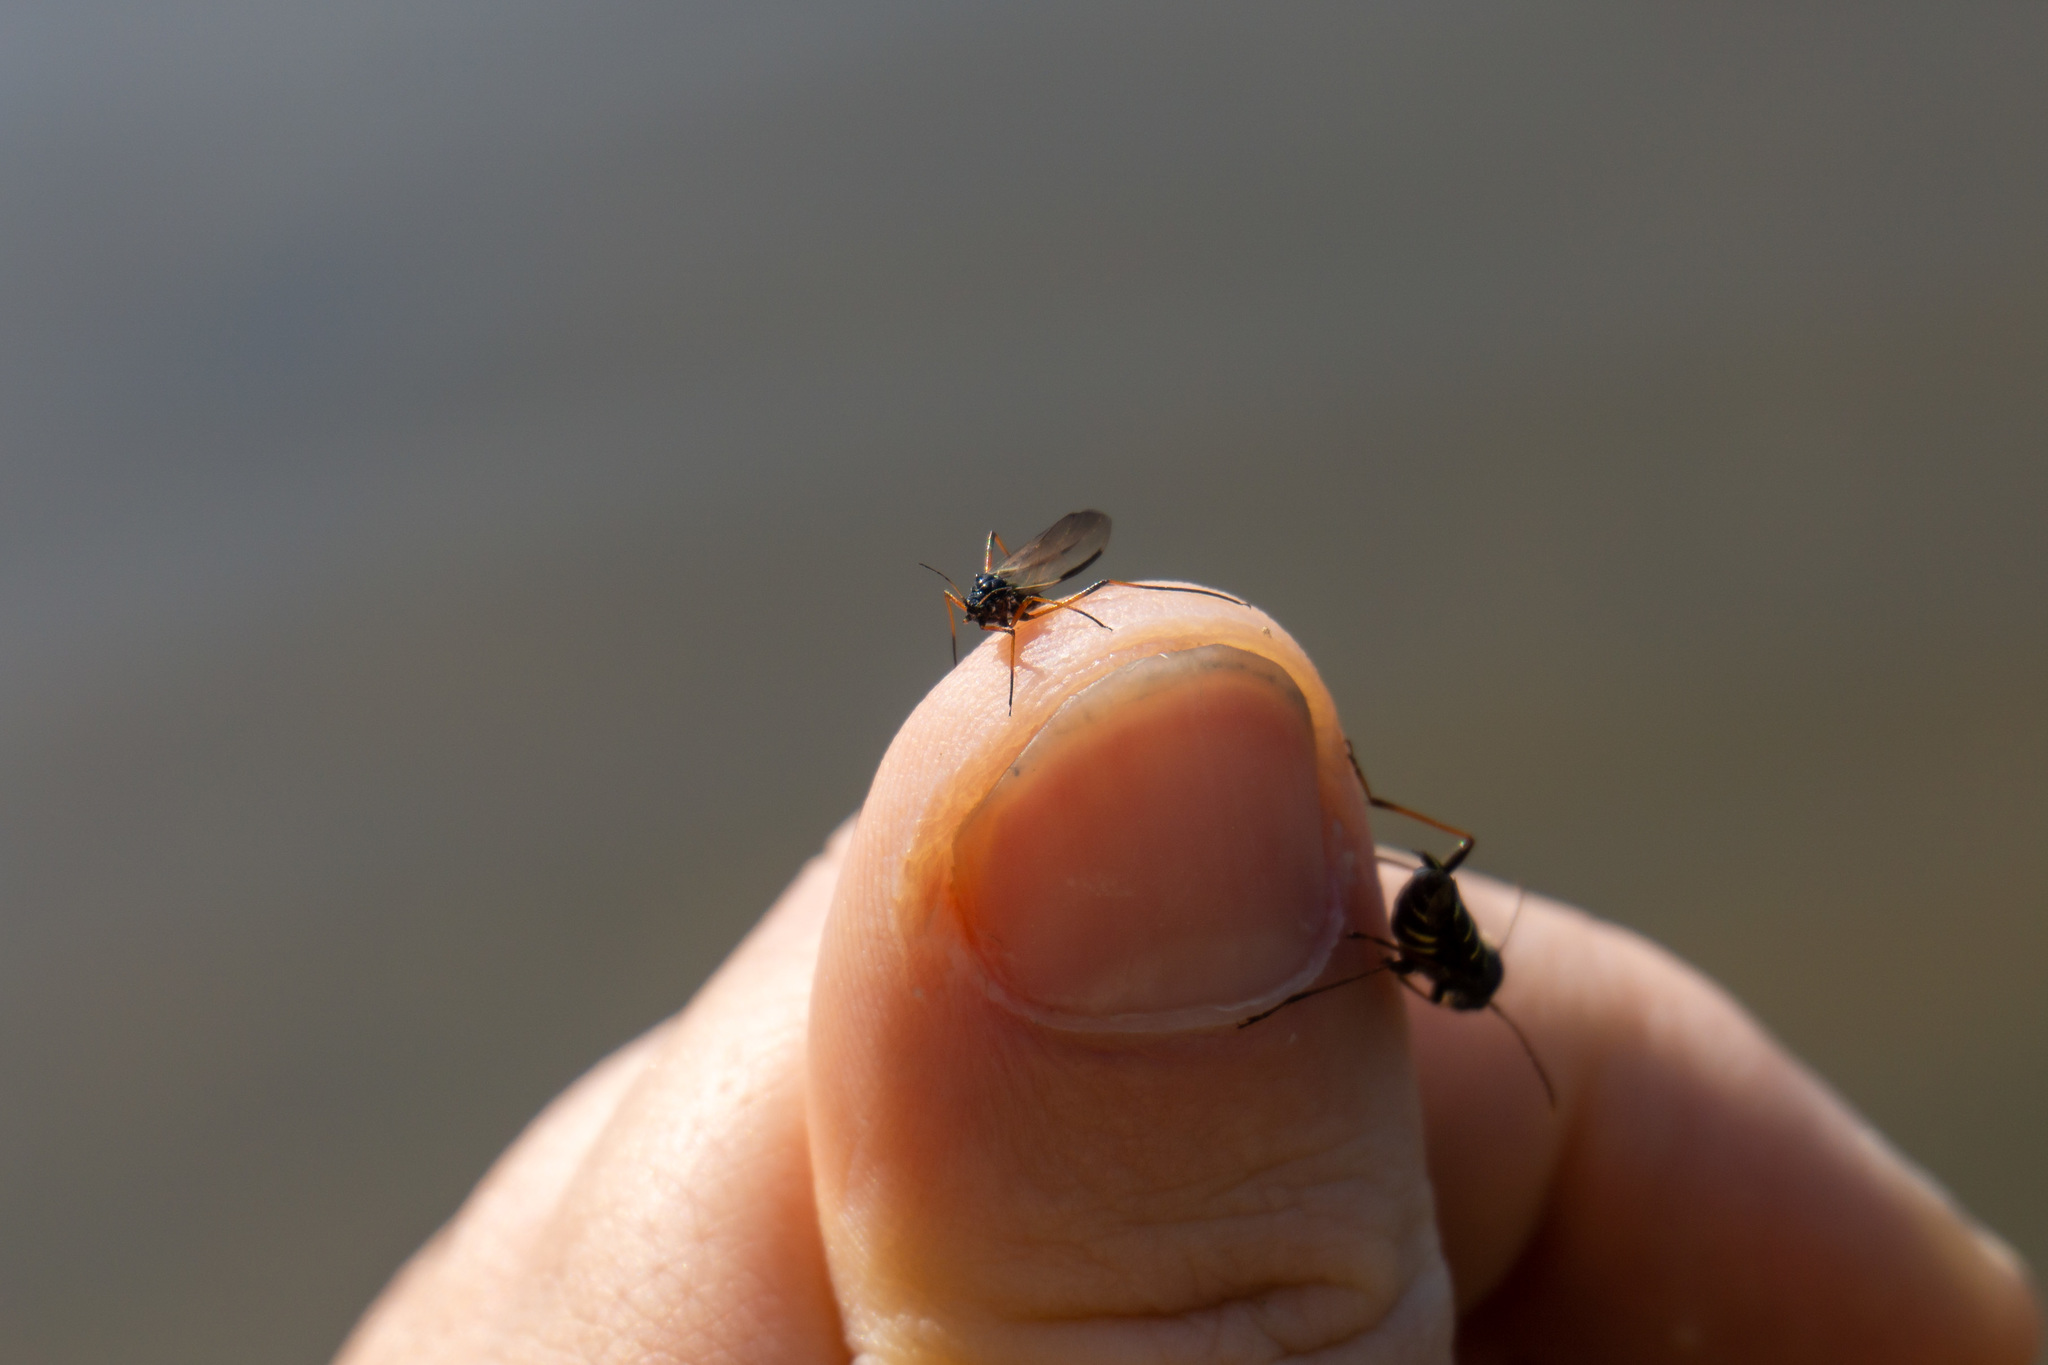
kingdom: Animalia
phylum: Arthropoda
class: Insecta
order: Coleoptera
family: Cerambycidae
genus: Clytus
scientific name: Clytus lama
